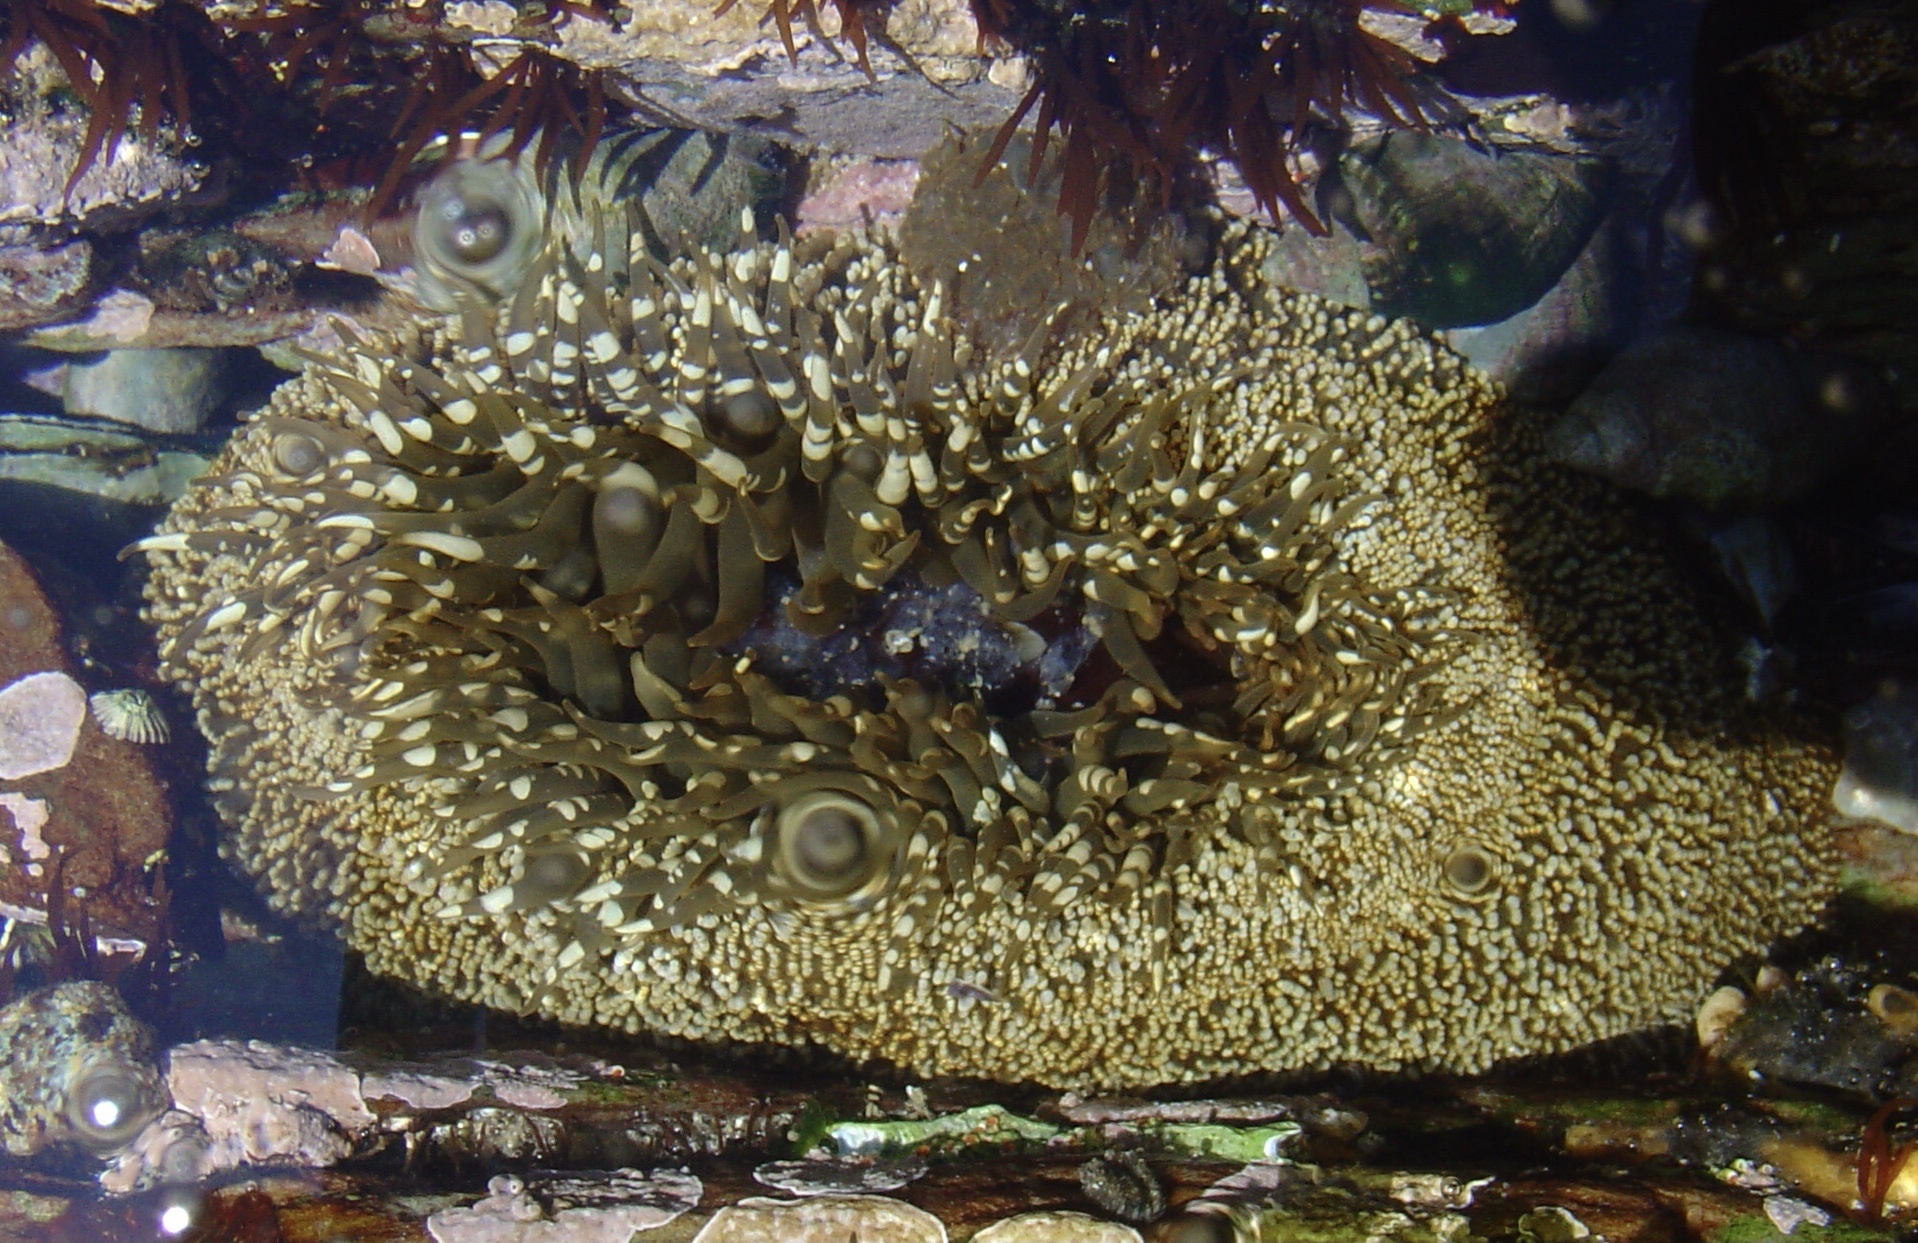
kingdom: Animalia
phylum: Cnidaria
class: Anthozoa
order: Actiniaria
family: Actiniidae
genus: Bunodactis
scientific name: Bunodactis reynaudi
